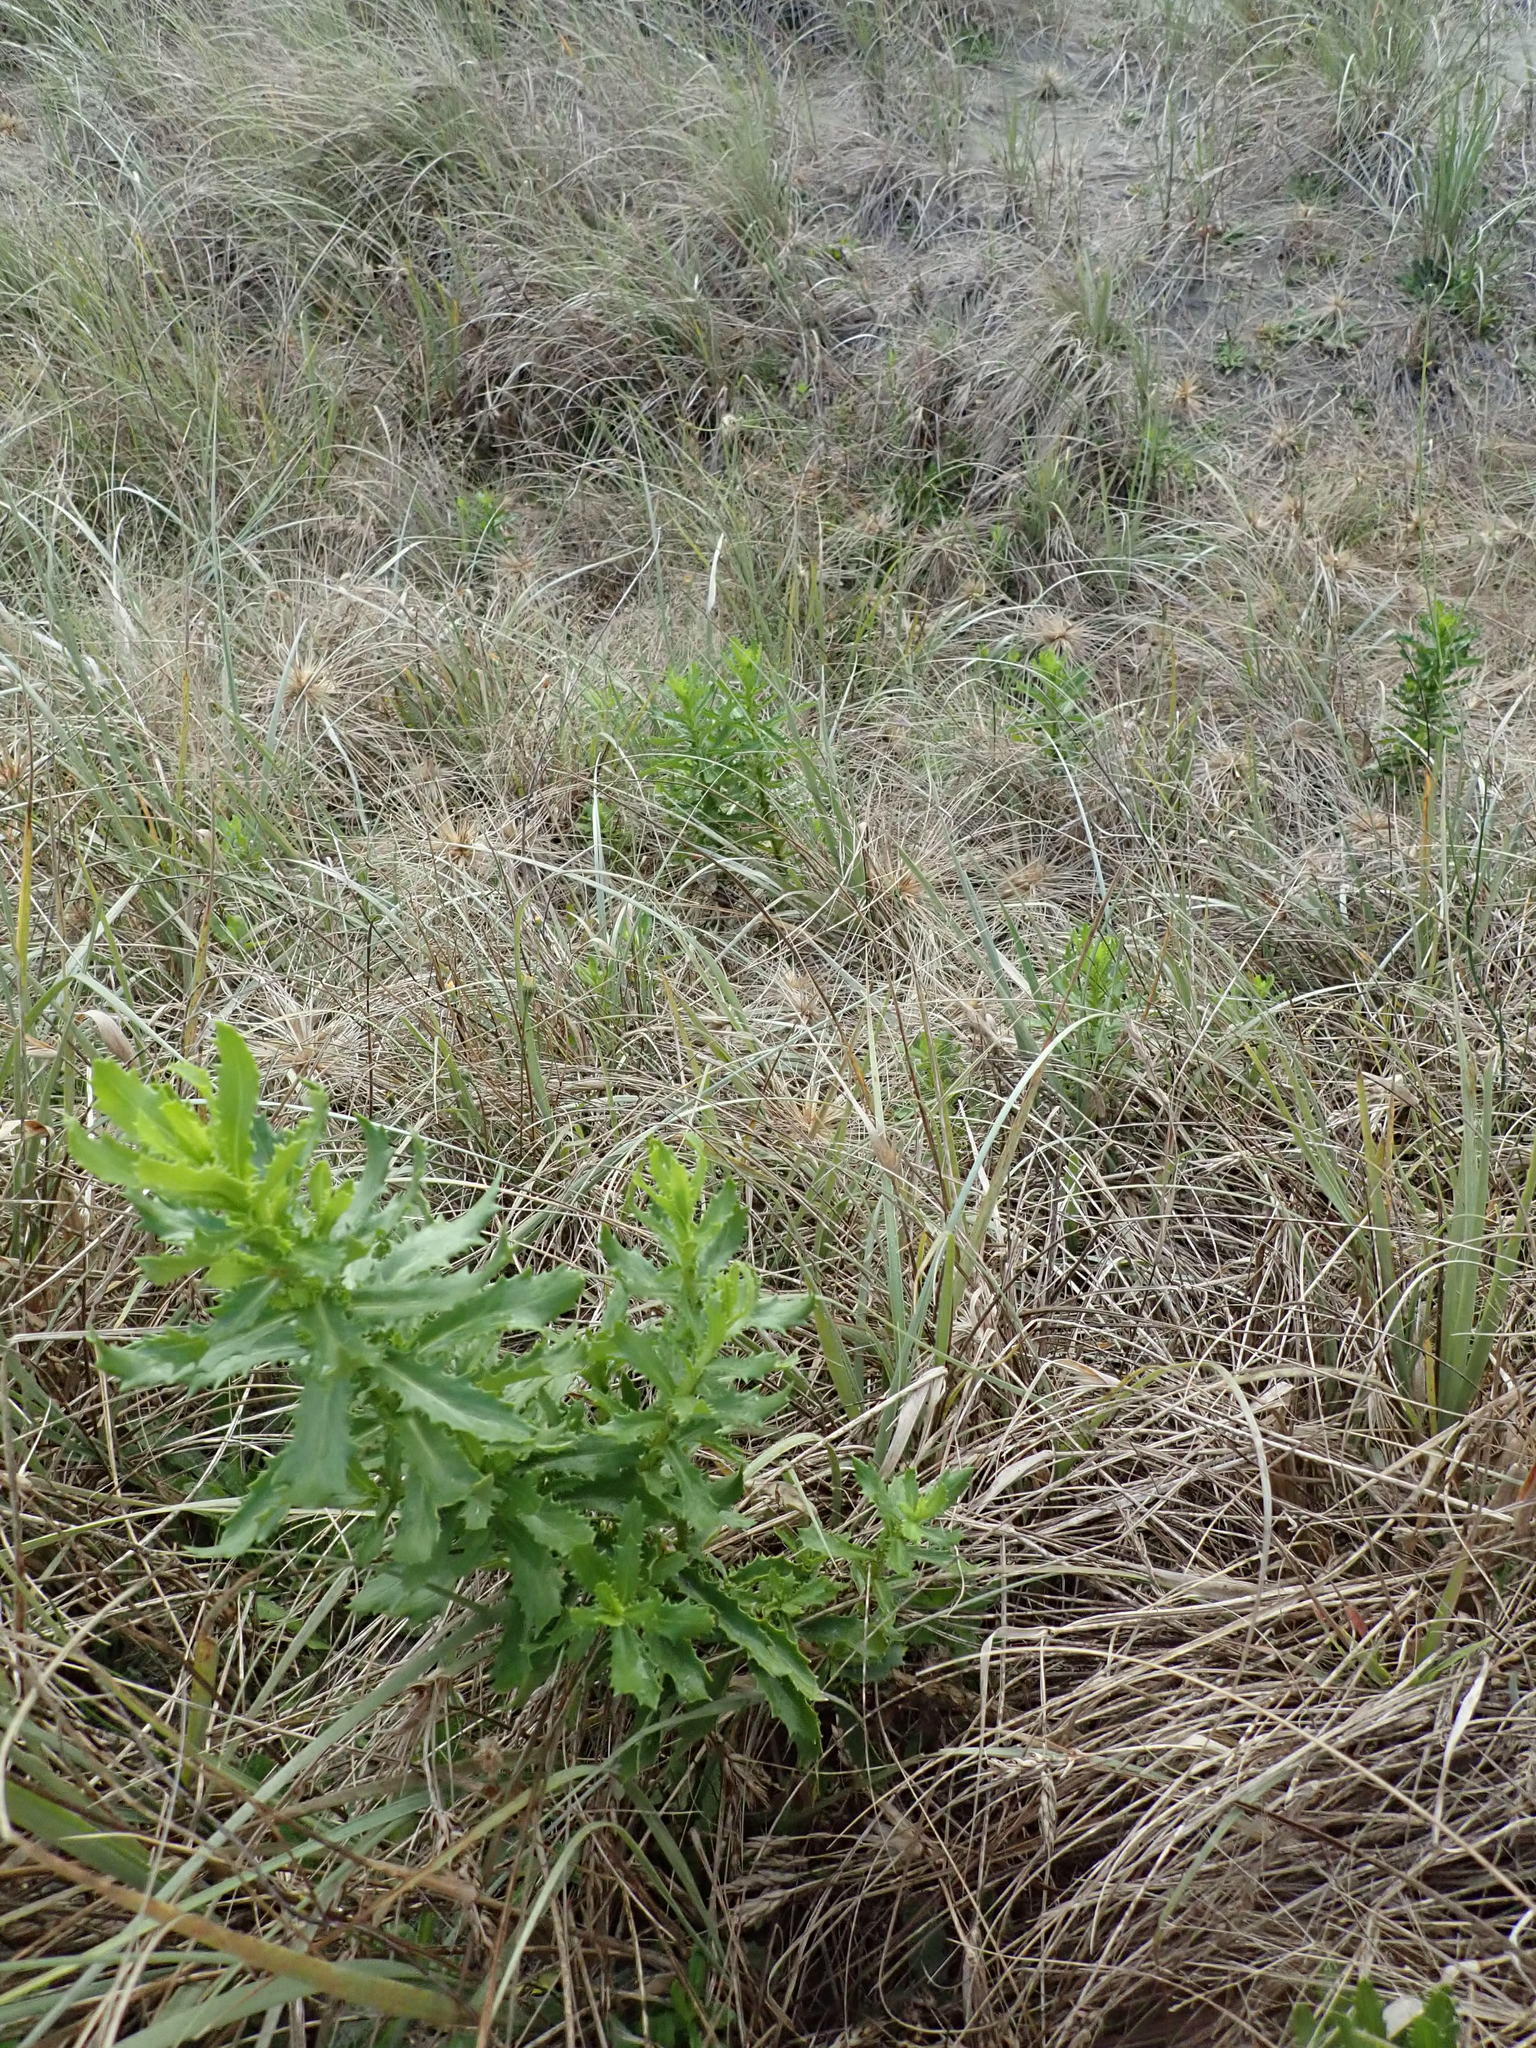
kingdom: Plantae
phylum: Tracheophyta
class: Magnoliopsida
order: Asterales
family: Asteraceae
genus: Senecio
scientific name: Senecio glastifolius
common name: Woad-leaved ragwort
